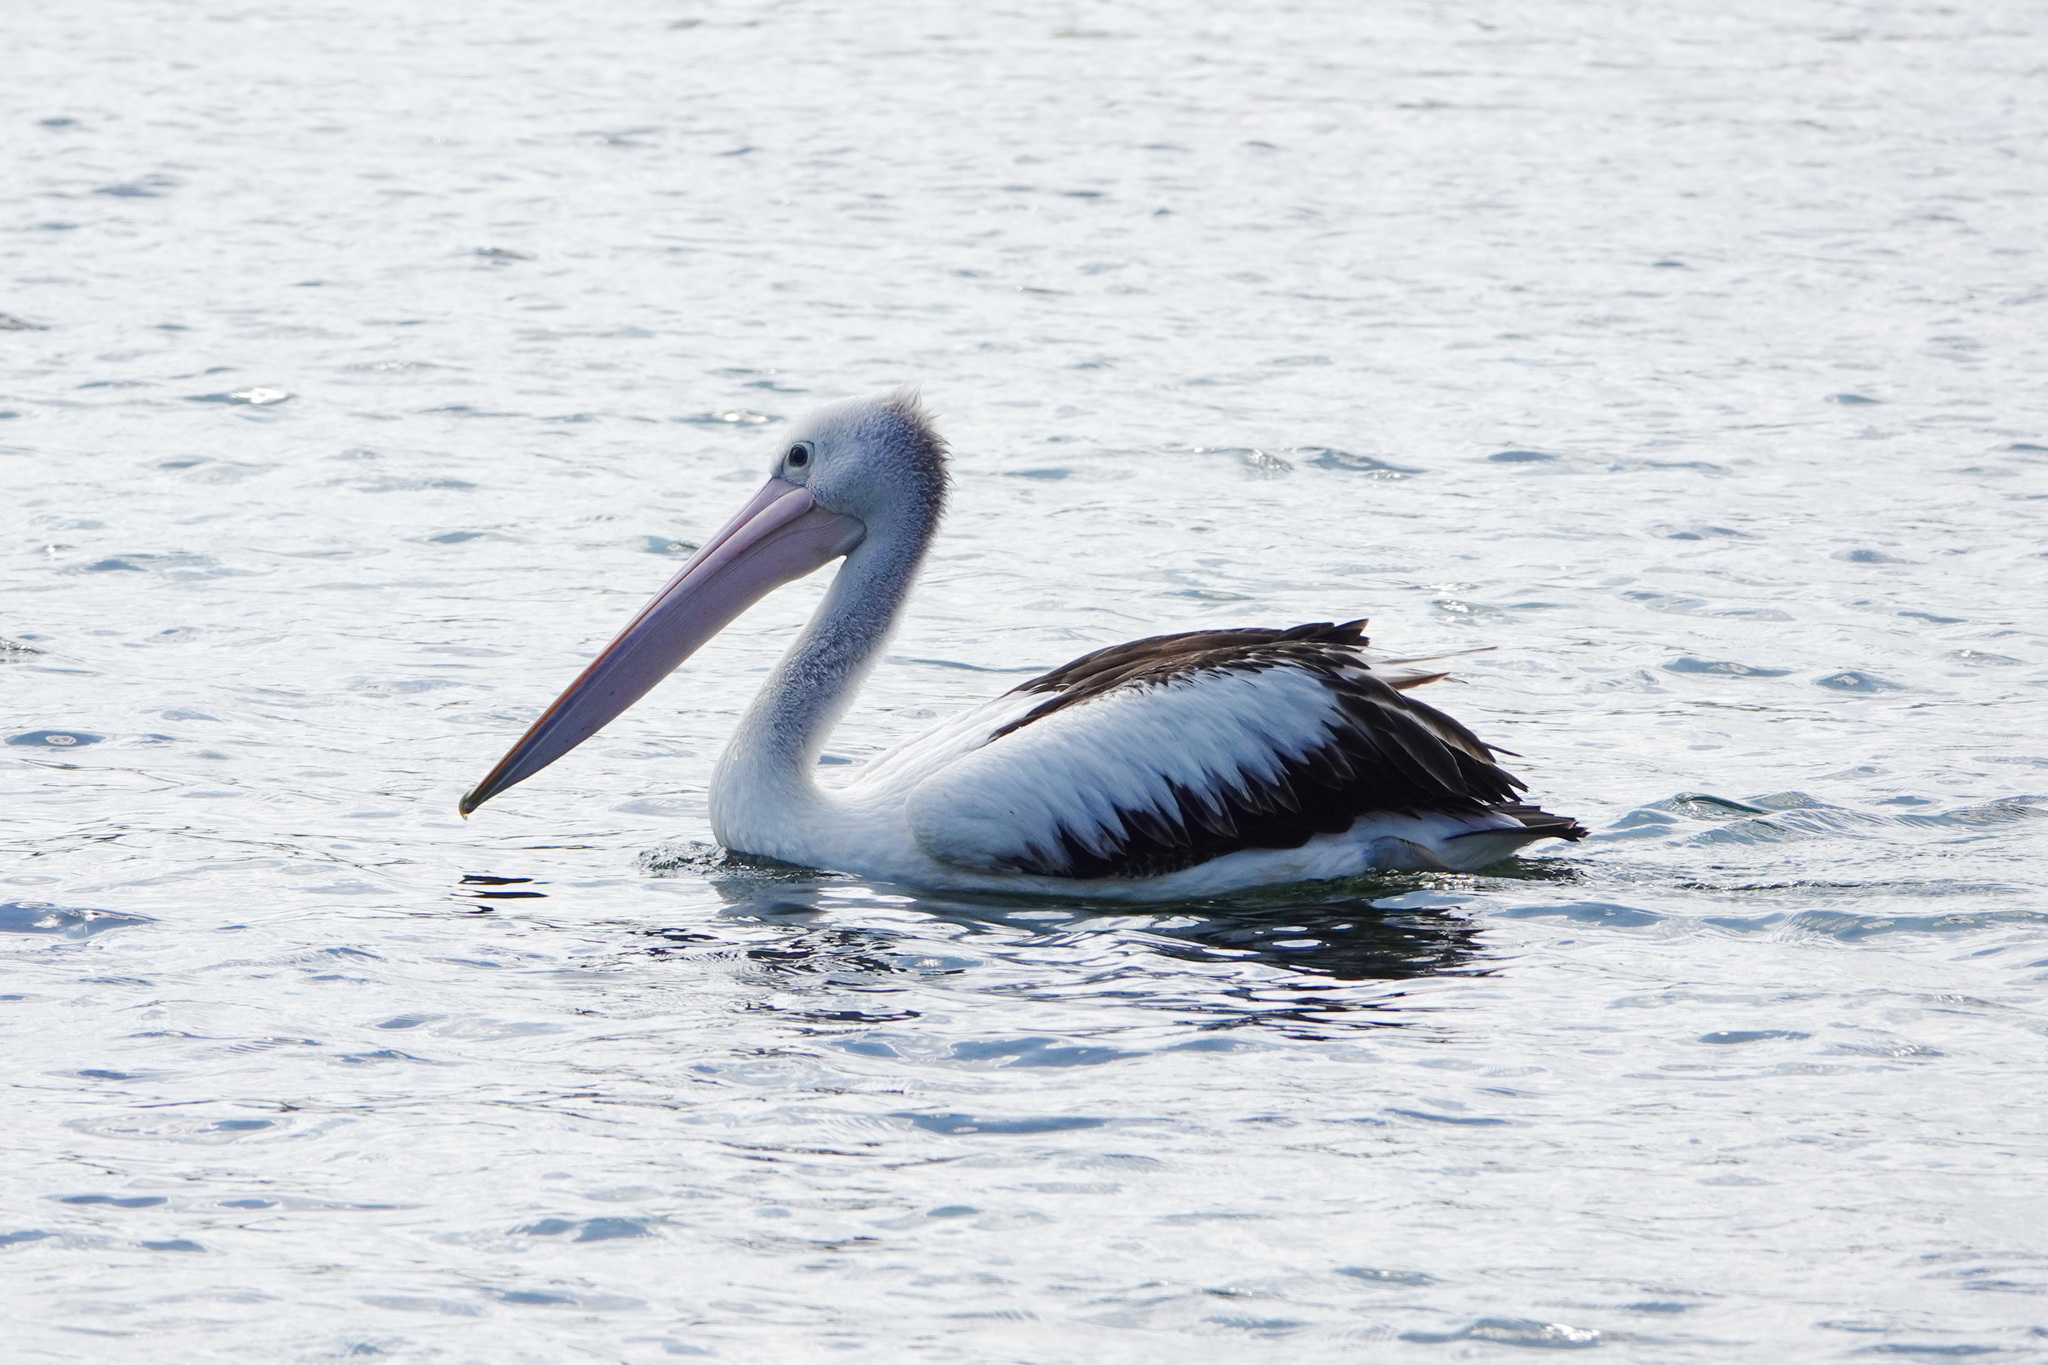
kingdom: Animalia
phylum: Chordata
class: Aves
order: Pelecaniformes
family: Pelecanidae
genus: Pelecanus
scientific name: Pelecanus conspicillatus
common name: Australian pelican
